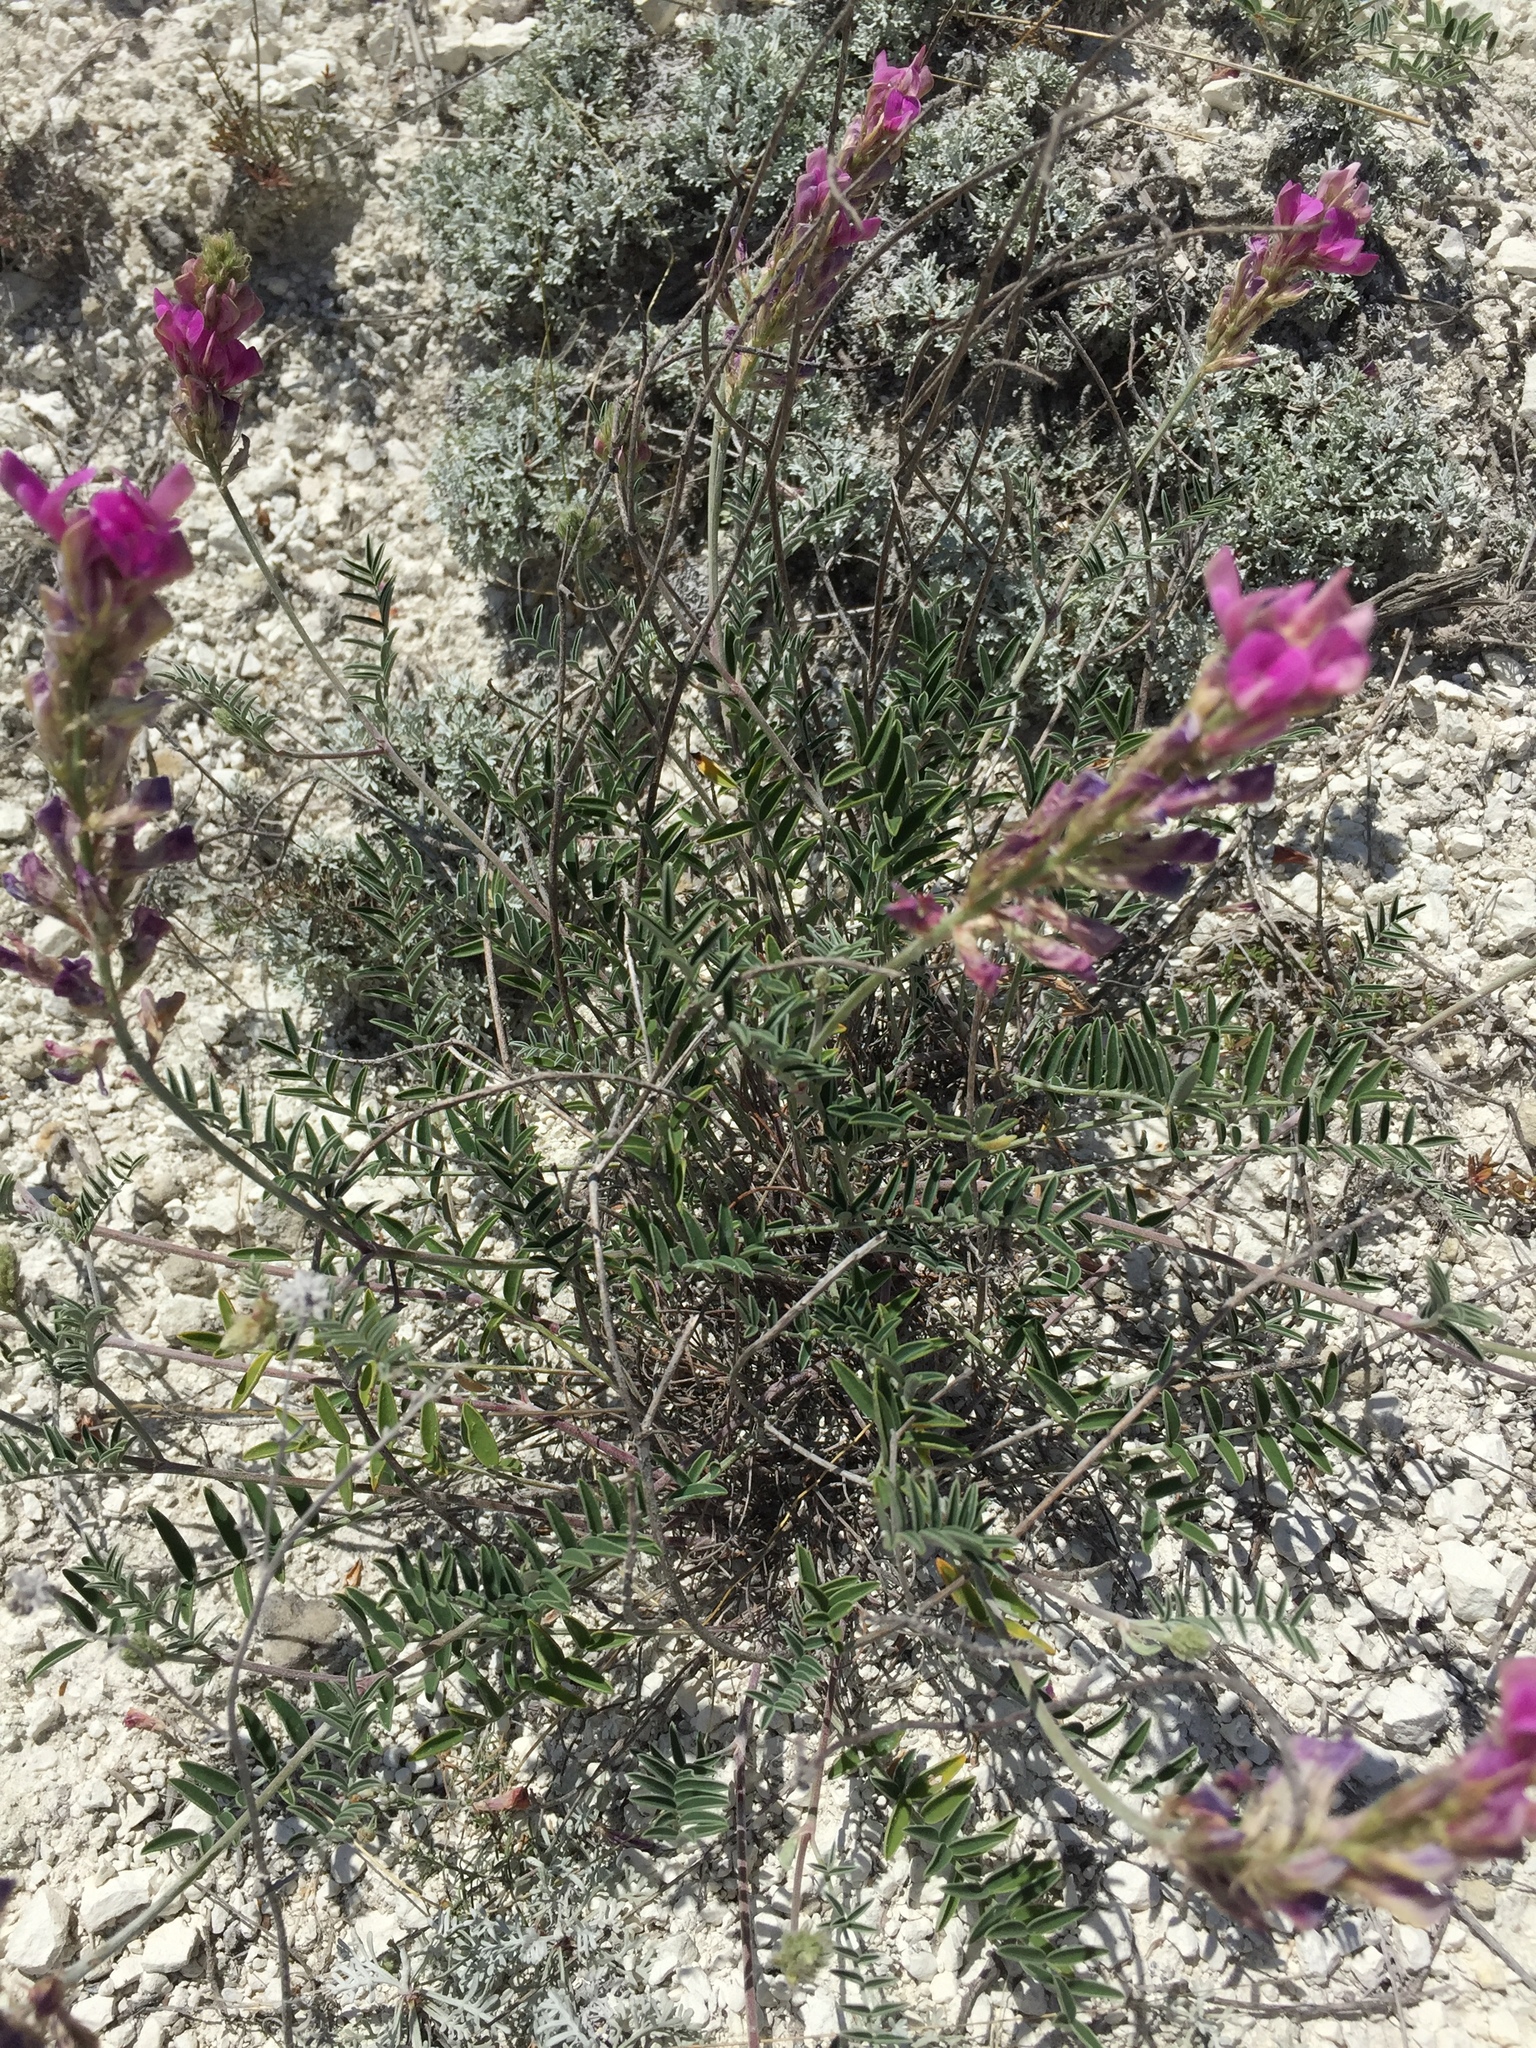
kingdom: Plantae
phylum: Tracheophyta
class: Magnoliopsida
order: Fabales
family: Fabaceae
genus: Hedysarum
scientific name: Hedysarum ucrainicum
